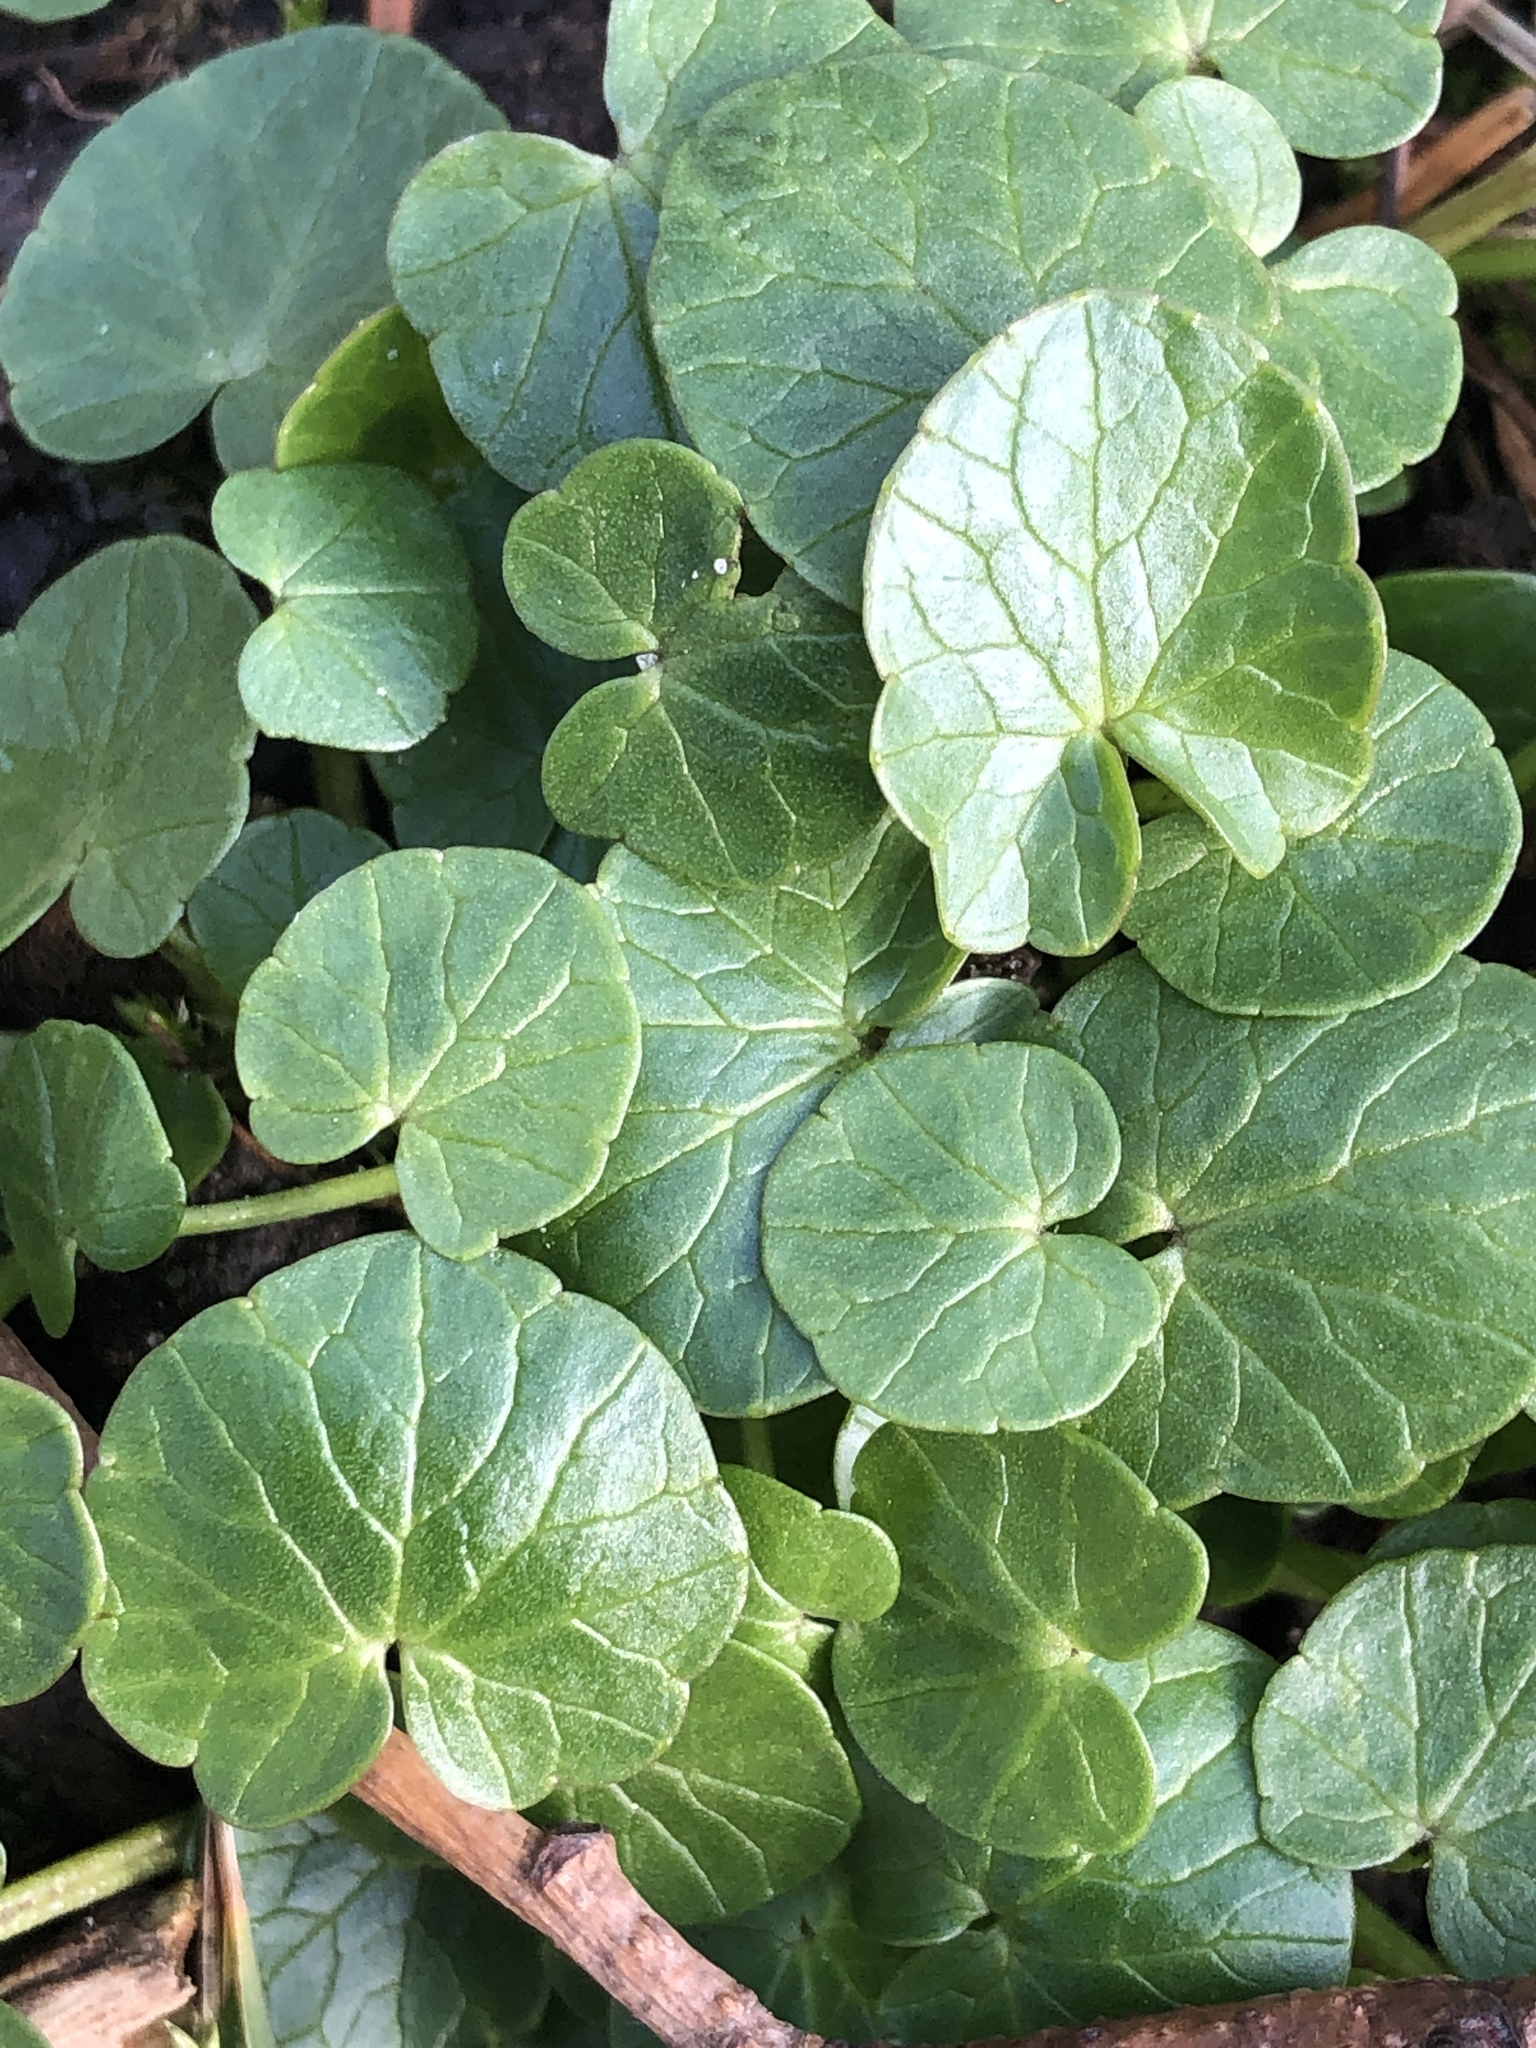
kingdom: Plantae
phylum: Tracheophyta
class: Magnoliopsida
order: Ranunculales
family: Ranunculaceae
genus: Ficaria
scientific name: Ficaria verna
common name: Lesser celandine
